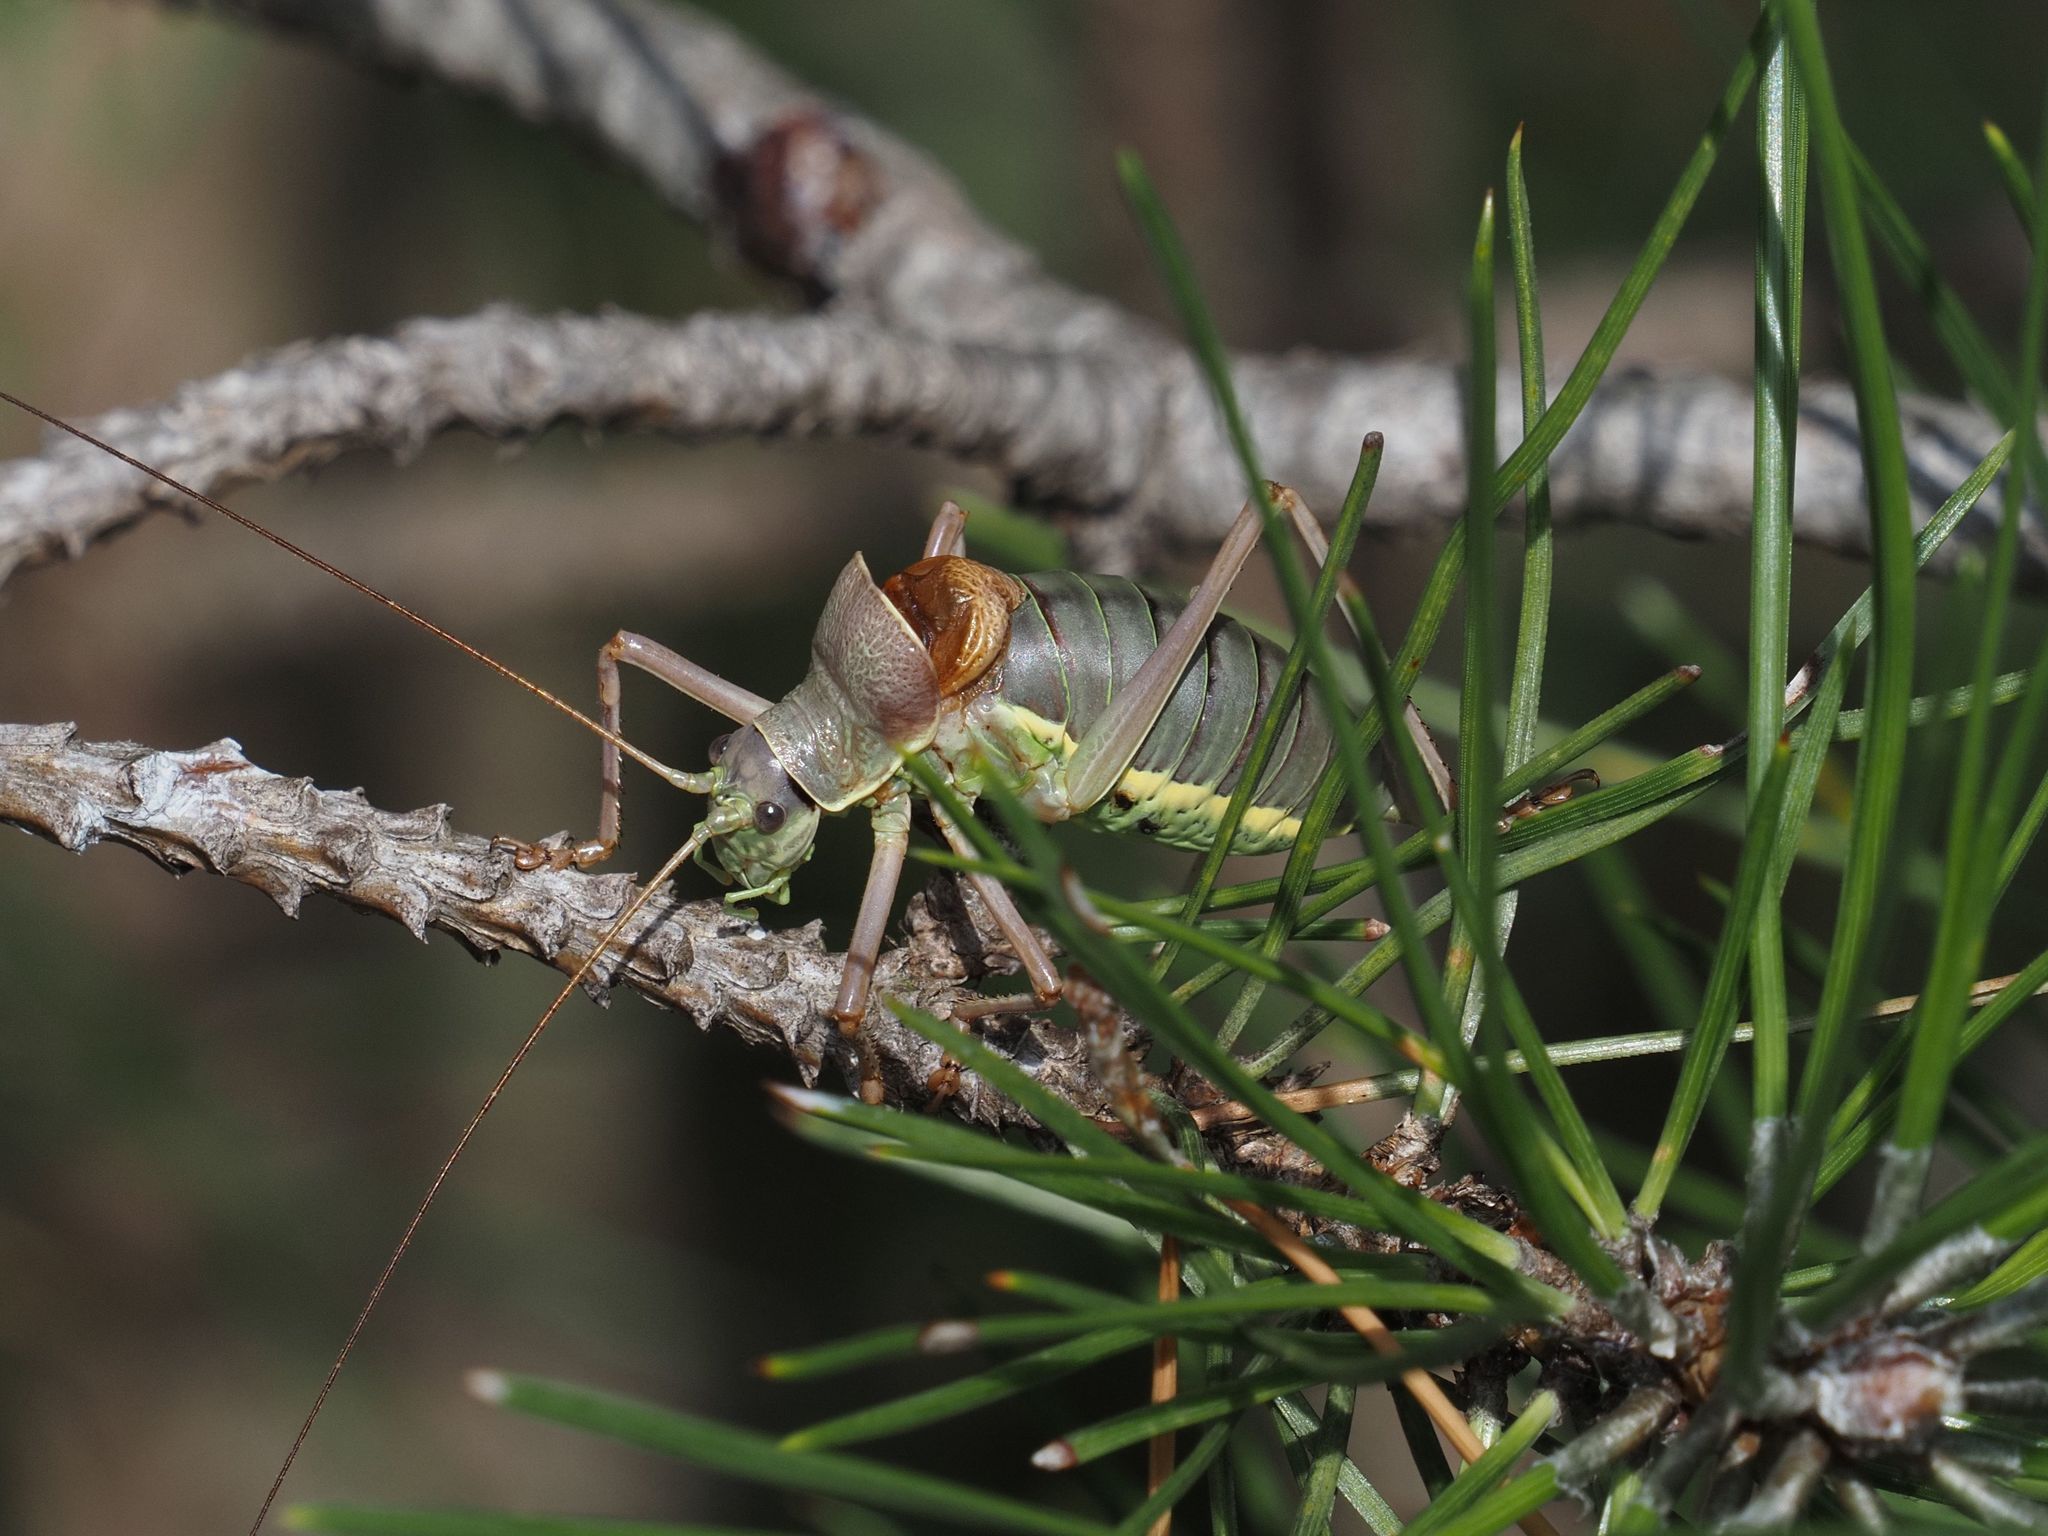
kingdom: Animalia
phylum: Arthropoda
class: Insecta
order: Orthoptera
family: Tettigoniidae
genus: Ephippiger
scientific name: Ephippiger ephippiger
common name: Eastern saddle bush-cricket
